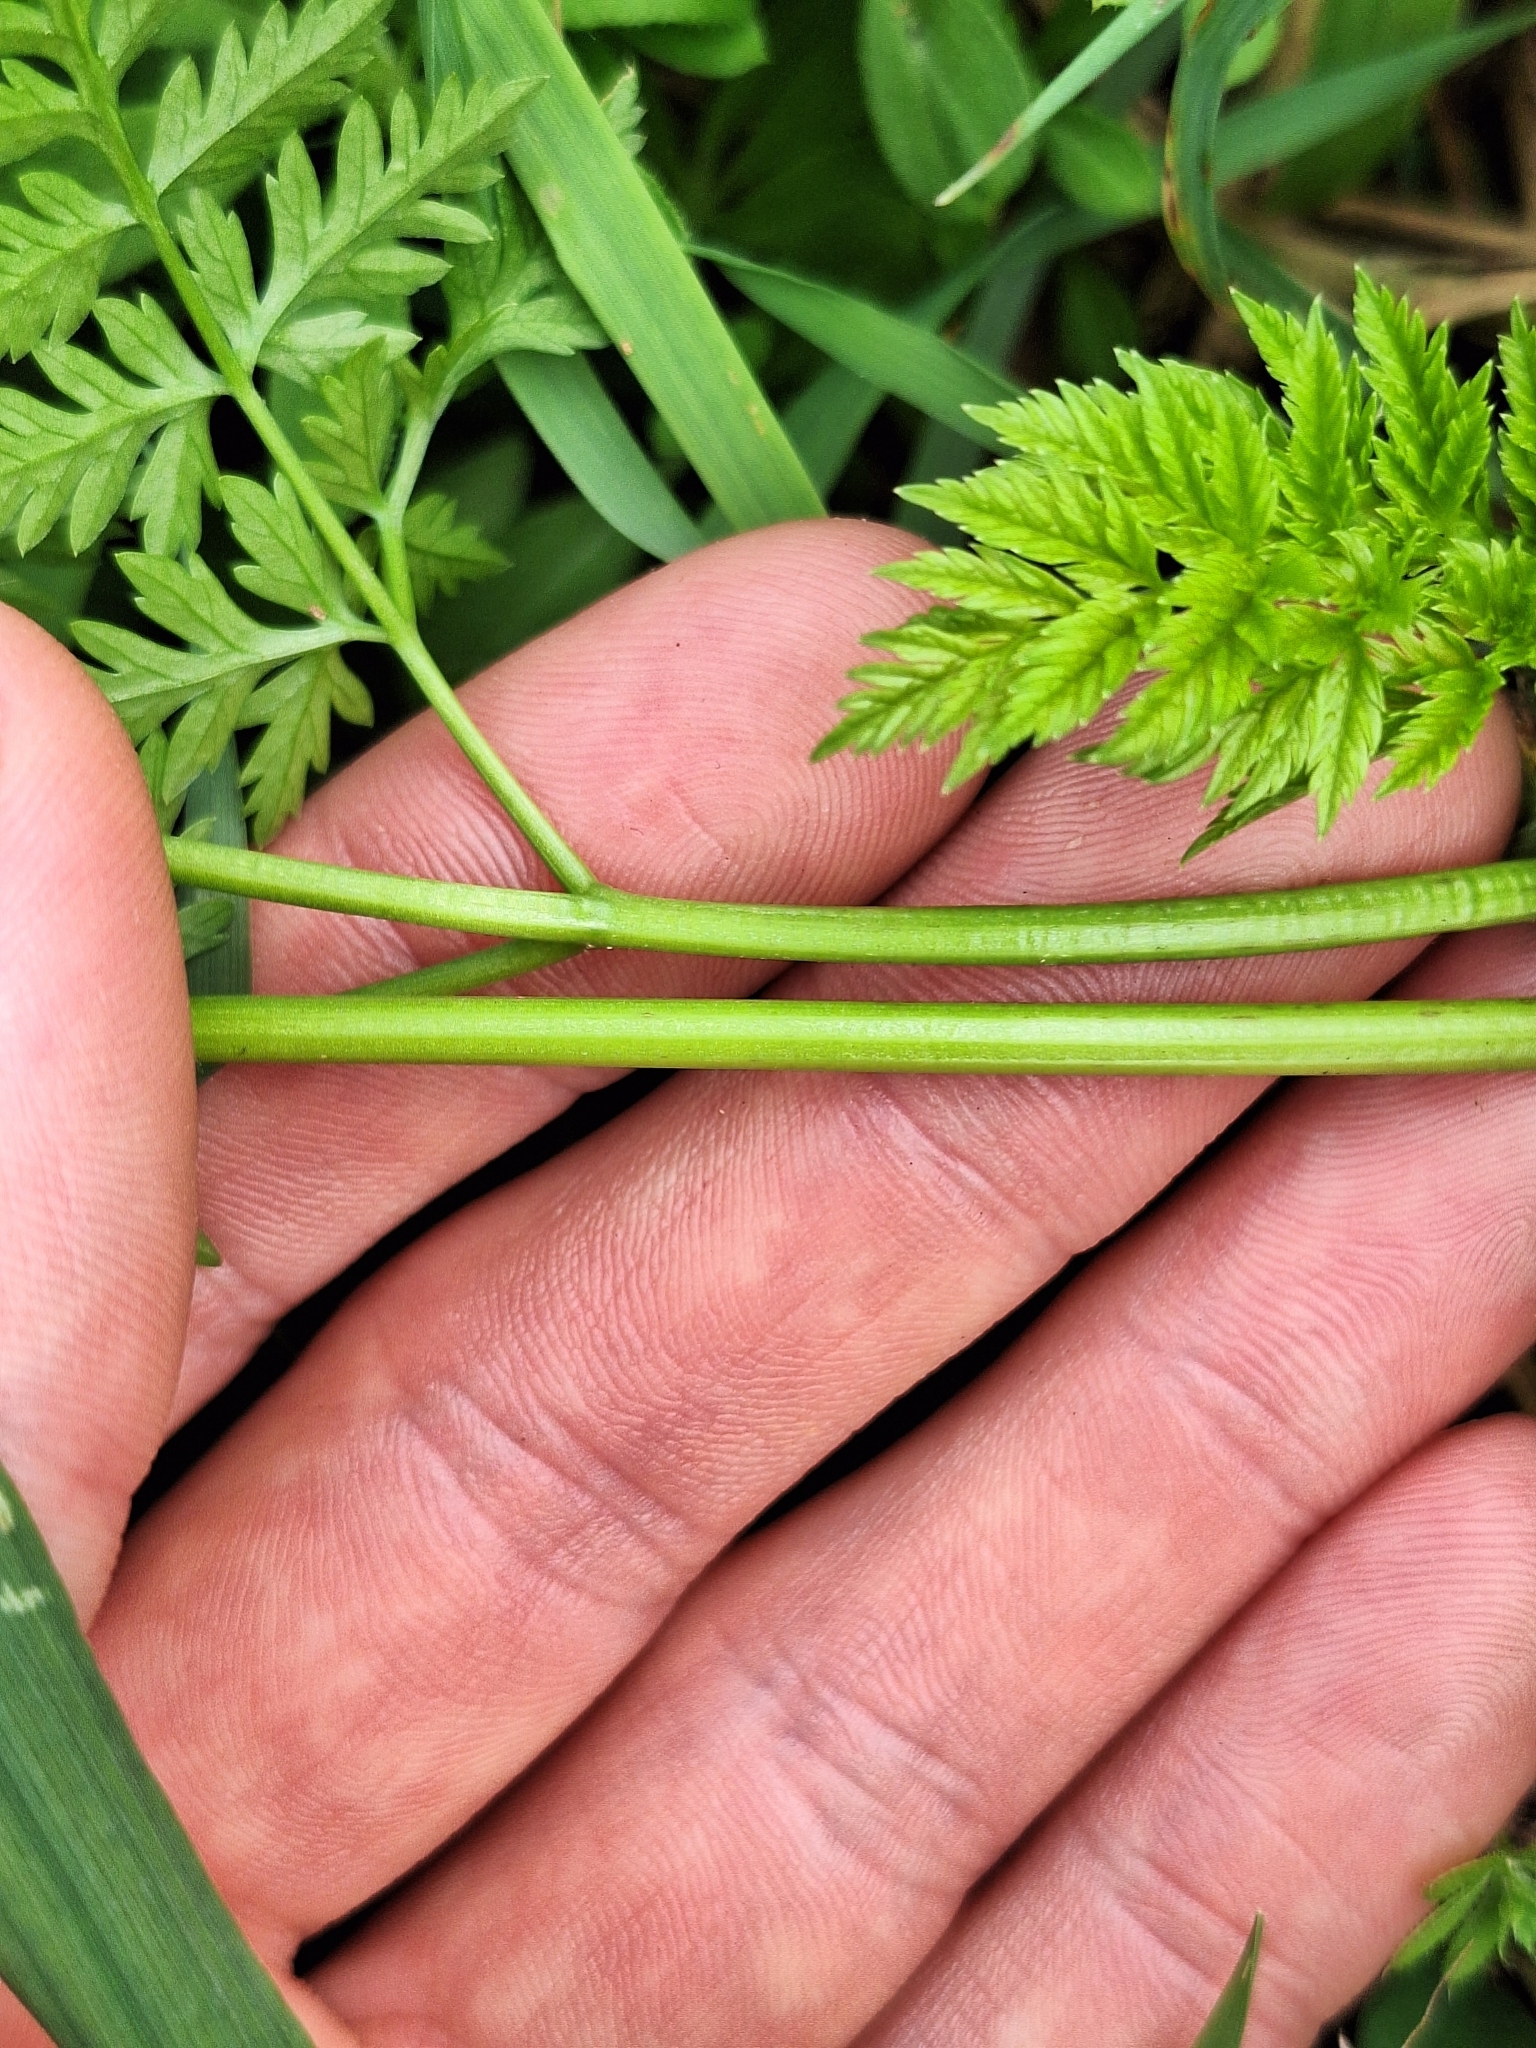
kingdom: Plantae
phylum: Tracheophyta
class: Magnoliopsida
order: Apiales
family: Apiaceae
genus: Conium
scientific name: Conium maculatum
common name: Hemlock
